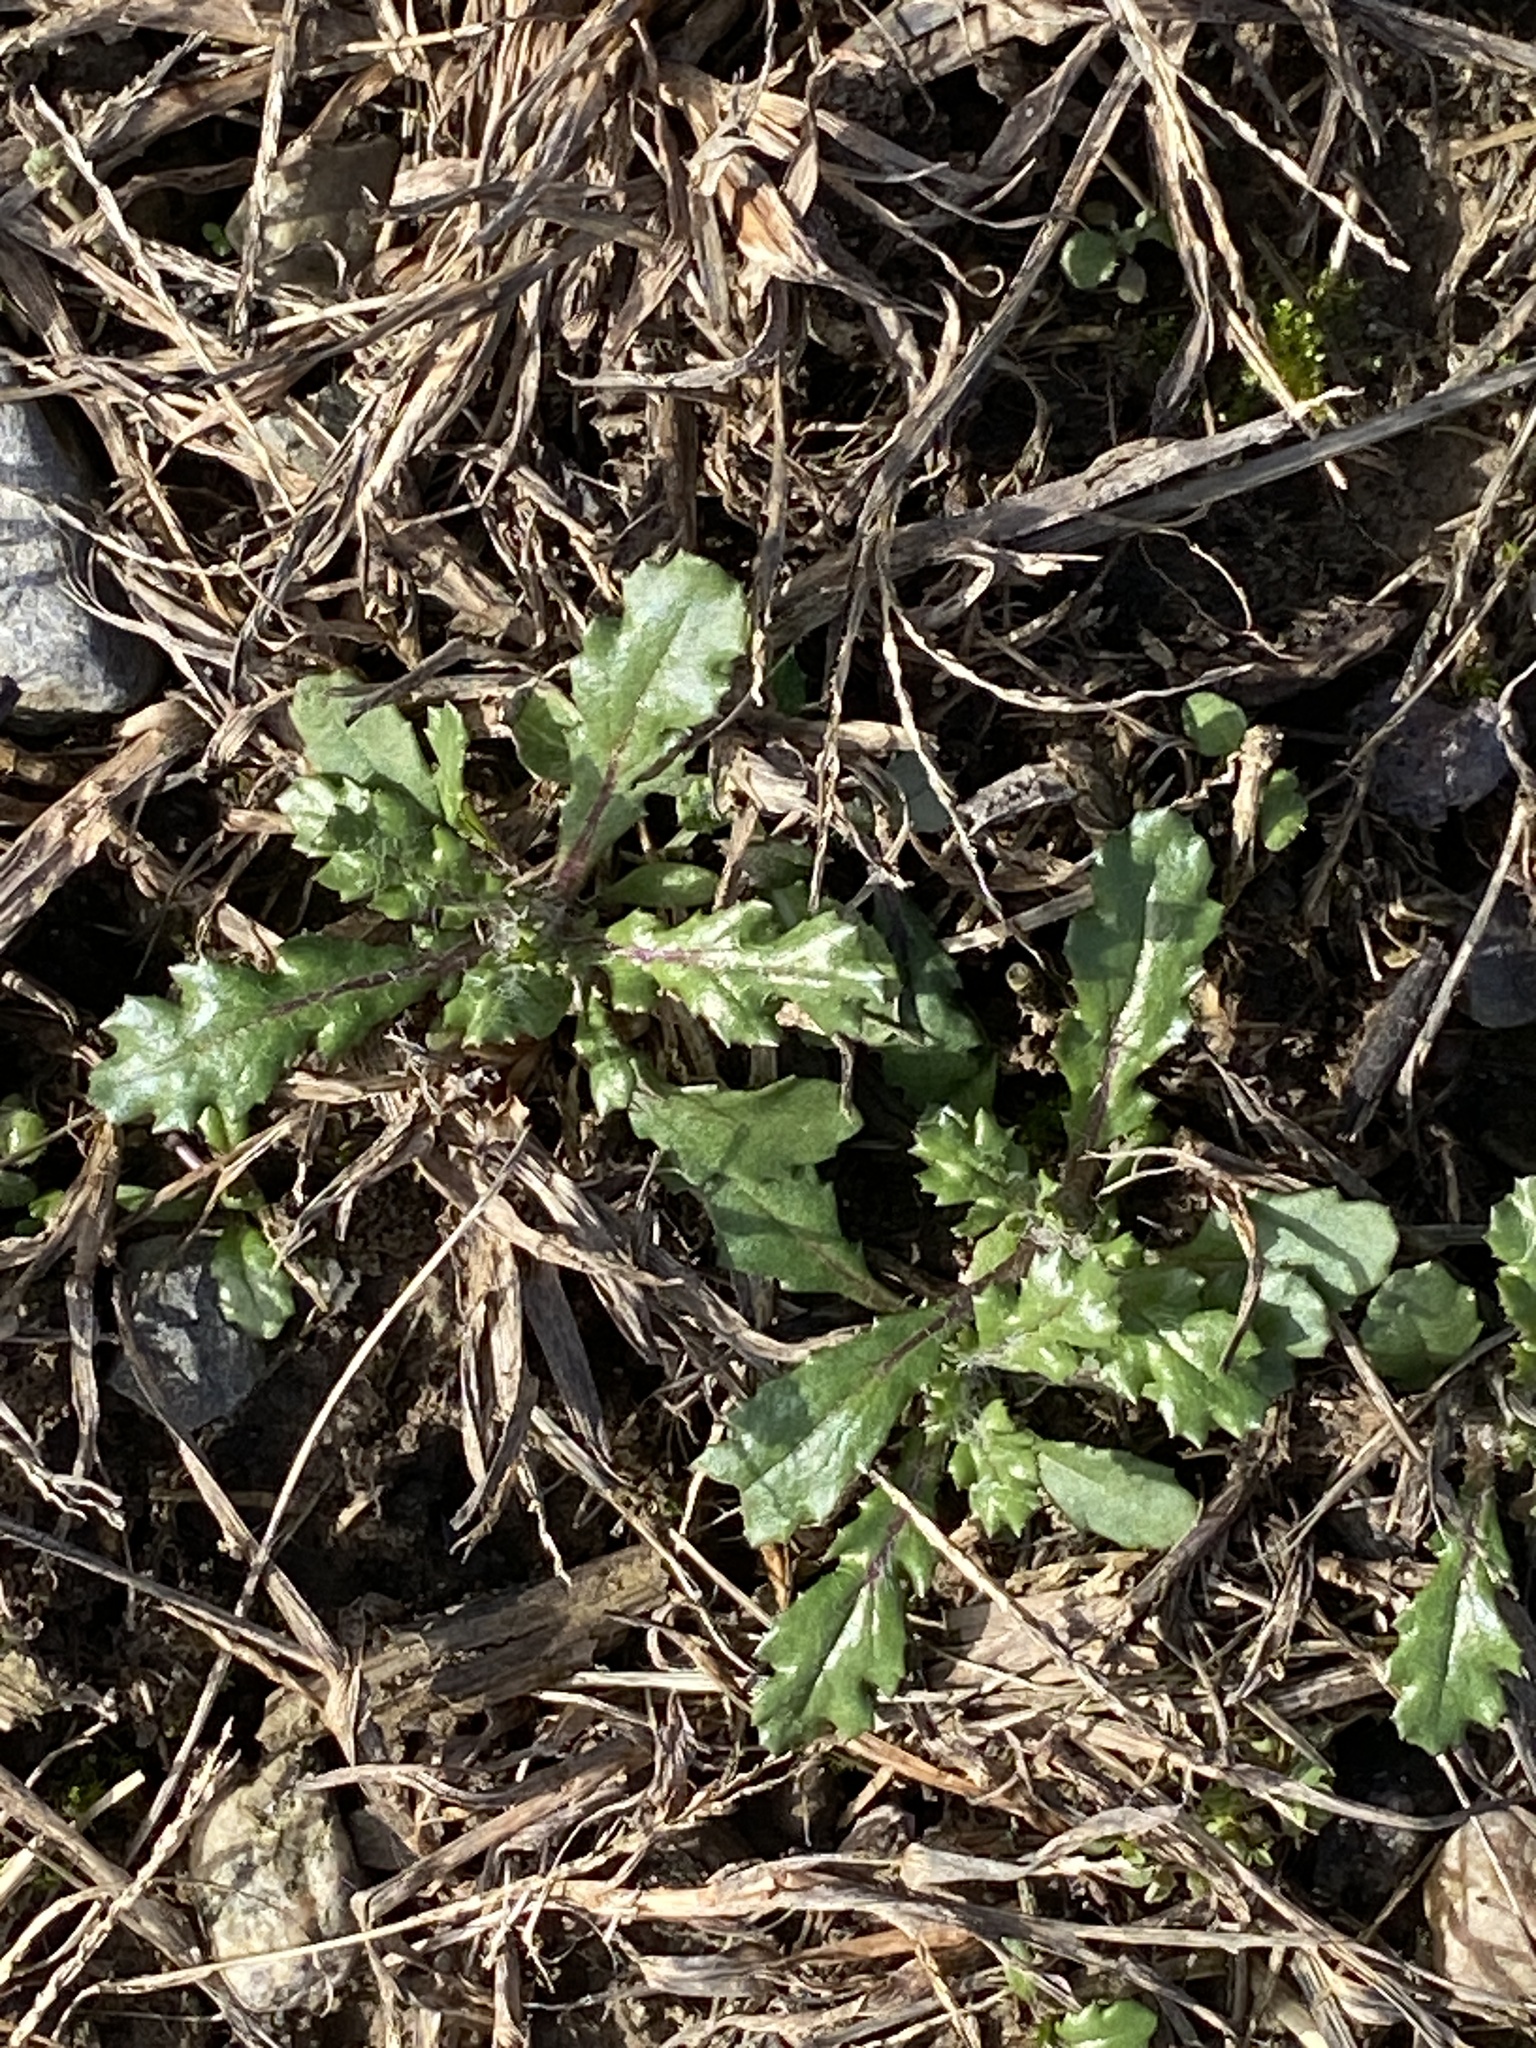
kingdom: Plantae
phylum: Tracheophyta
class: Magnoliopsida
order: Asterales
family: Asteraceae
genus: Senecio
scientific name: Senecio vulgaris
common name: Old-man-in-the-spring
